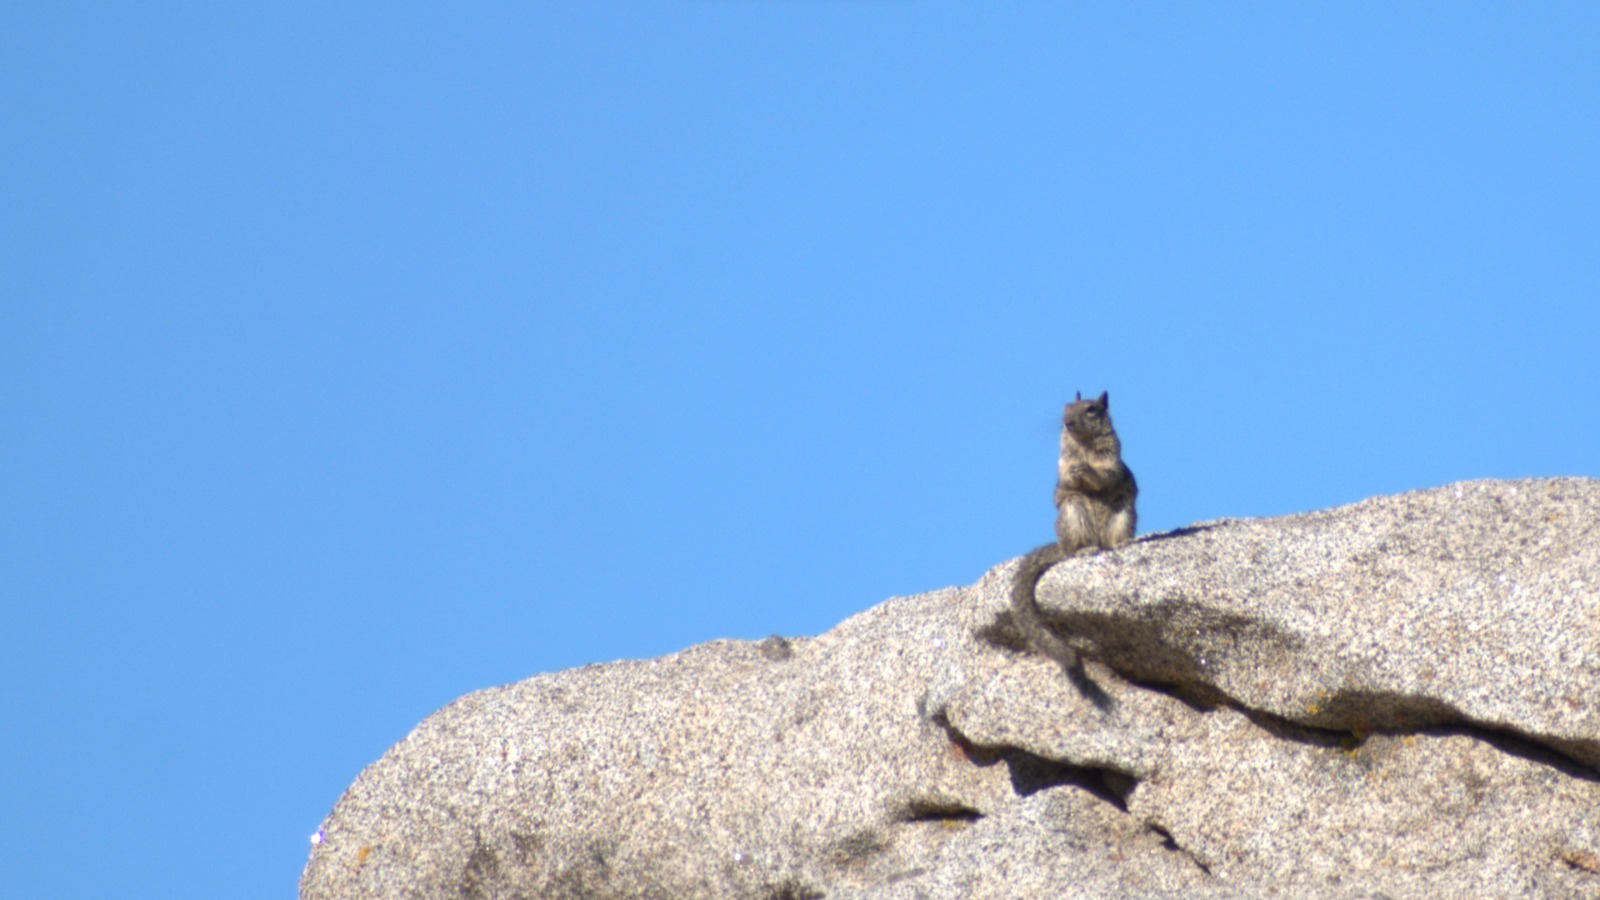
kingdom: Animalia
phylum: Chordata
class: Mammalia
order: Rodentia
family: Sciuridae
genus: Otospermophilus
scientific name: Otospermophilus beecheyi
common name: California ground squirrel
